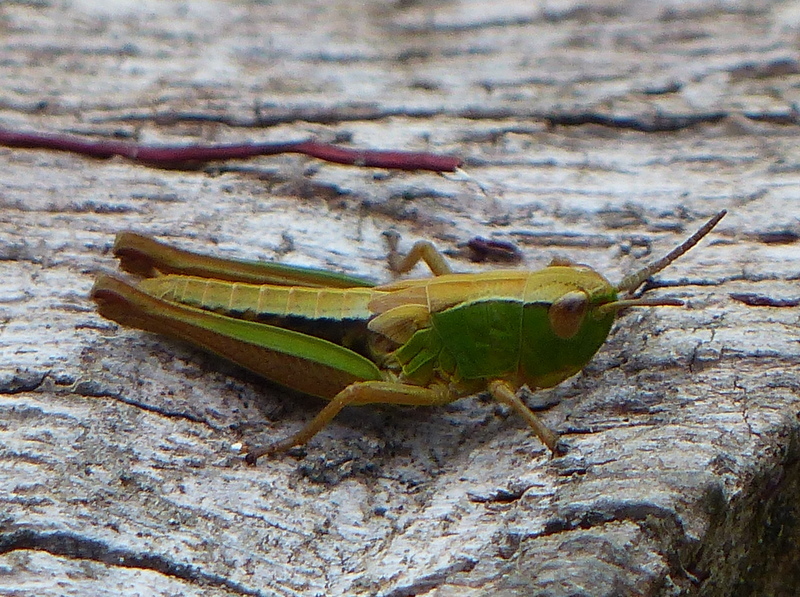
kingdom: Animalia
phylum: Arthropoda
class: Insecta
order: Orthoptera
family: Acrididae
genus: Pseudochorthippus
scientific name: Pseudochorthippus parallelus
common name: Meadow grasshopper
